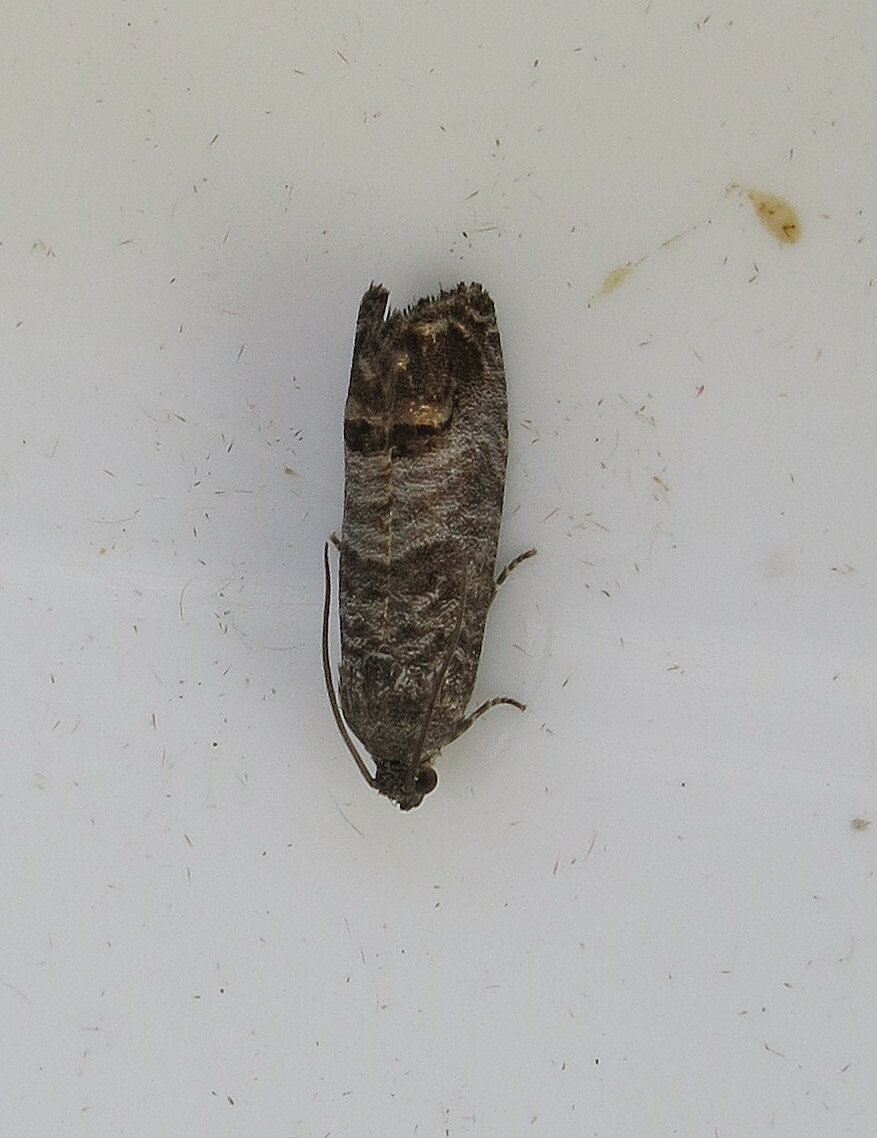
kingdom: Animalia
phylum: Arthropoda
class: Insecta
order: Lepidoptera
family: Tortricidae
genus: Cydia
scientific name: Cydia pomonella
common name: Codling moth
